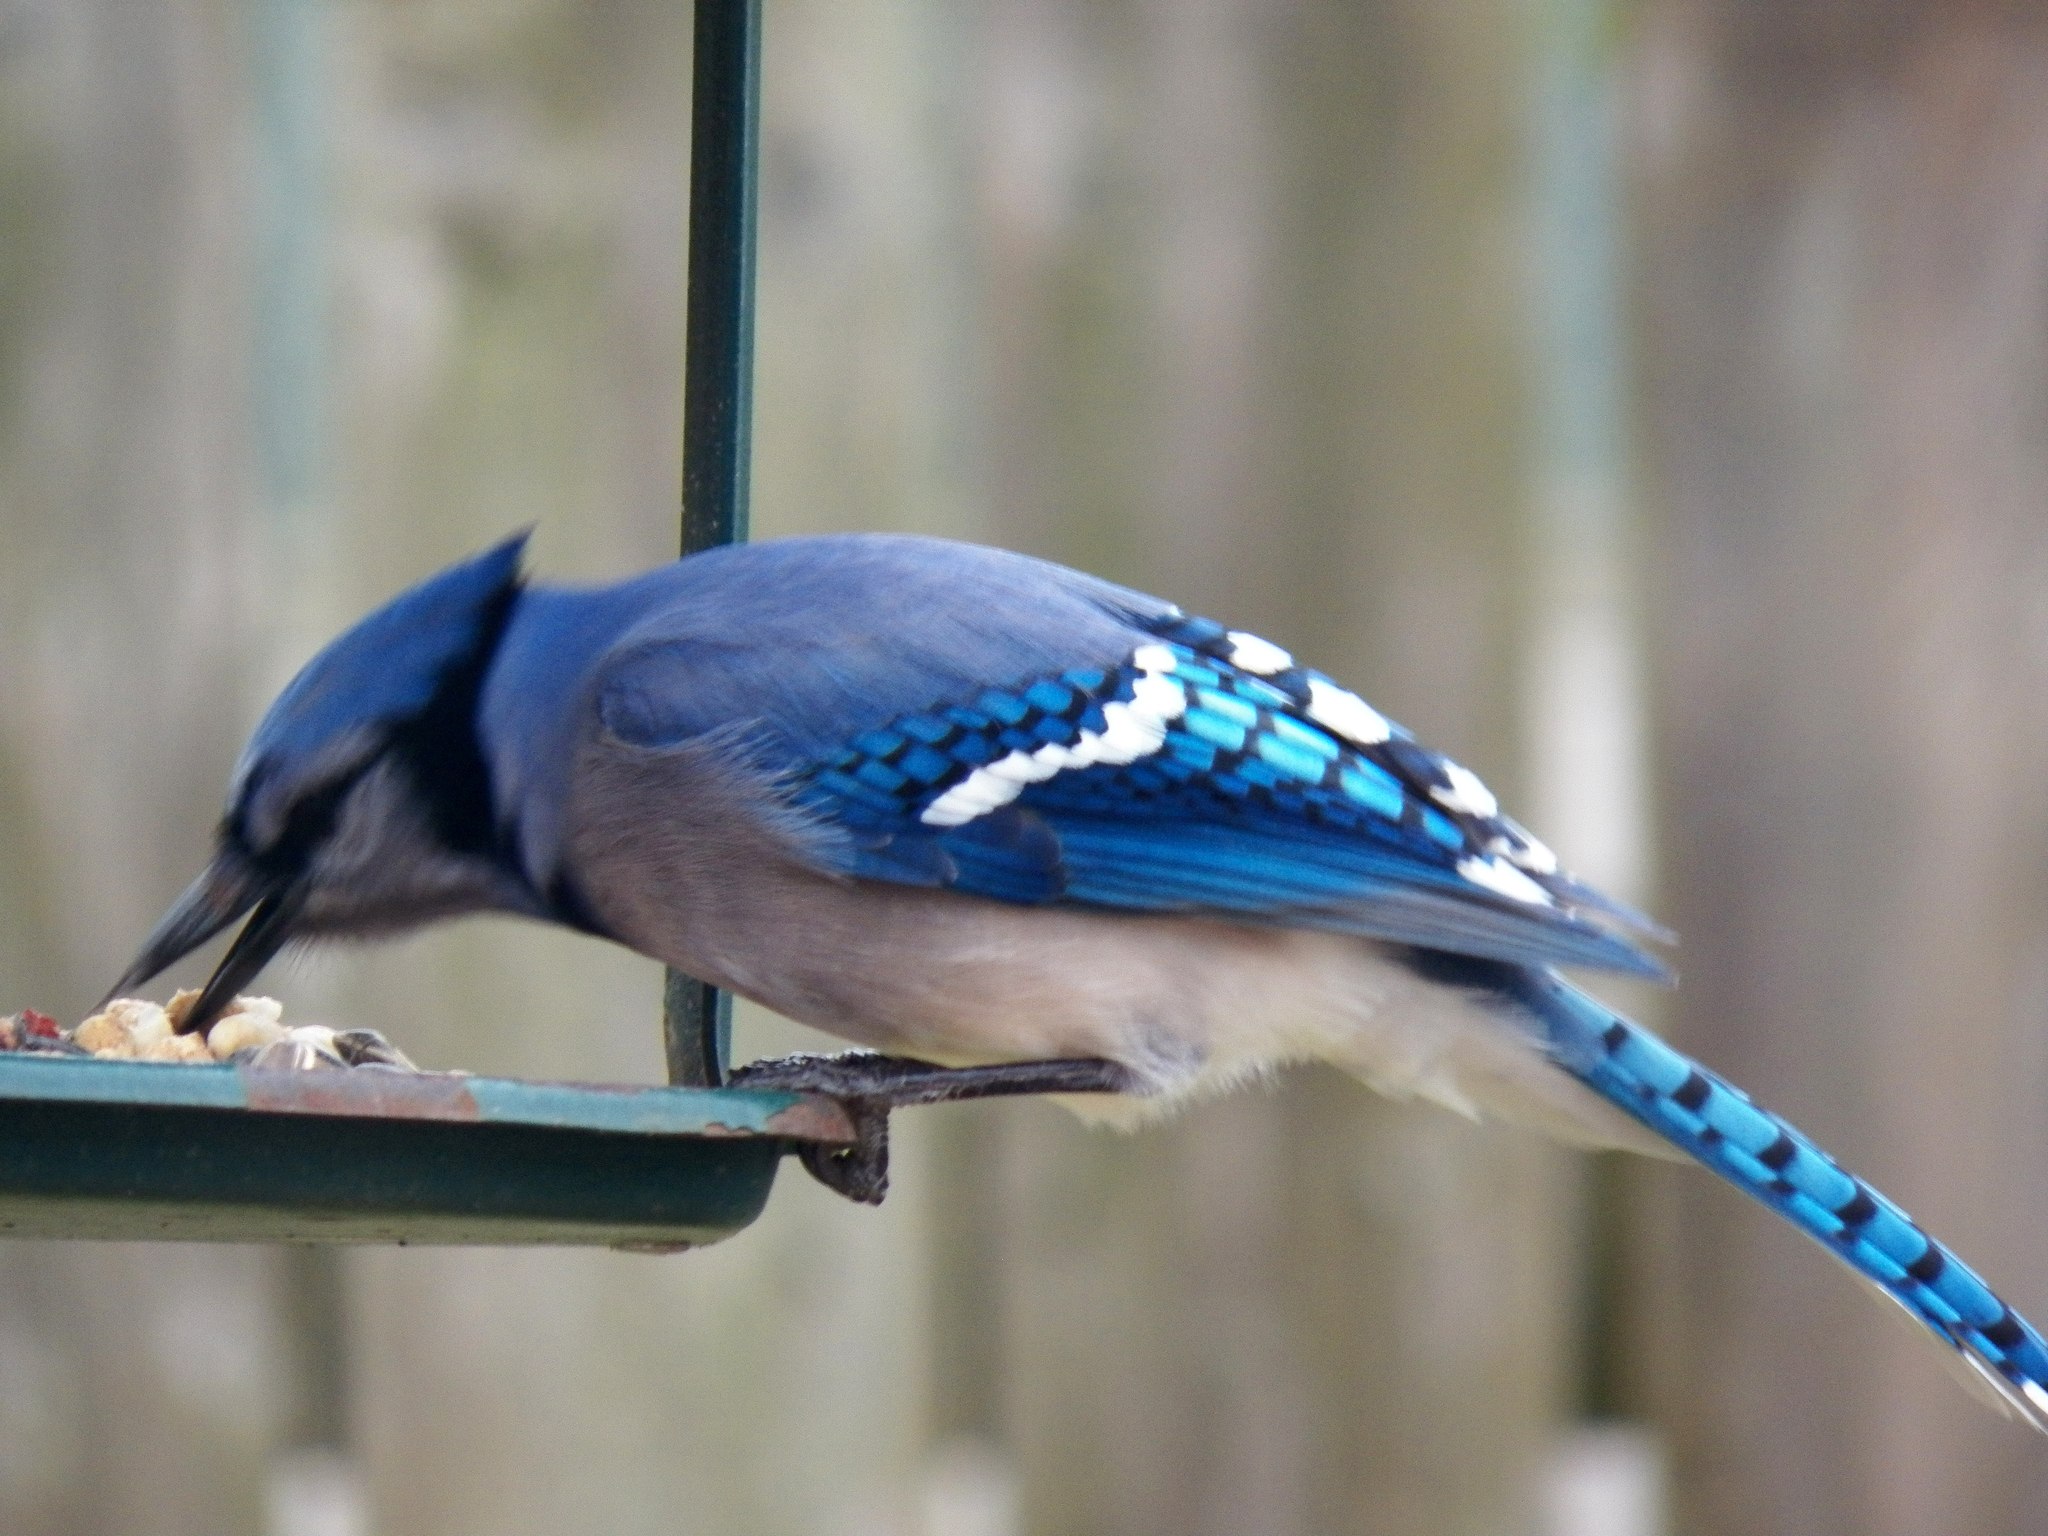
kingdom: Animalia
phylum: Chordata
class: Aves
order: Passeriformes
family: Corvidae
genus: Cyanocitta
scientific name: Cyanocitta cristata
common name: Blue jay
